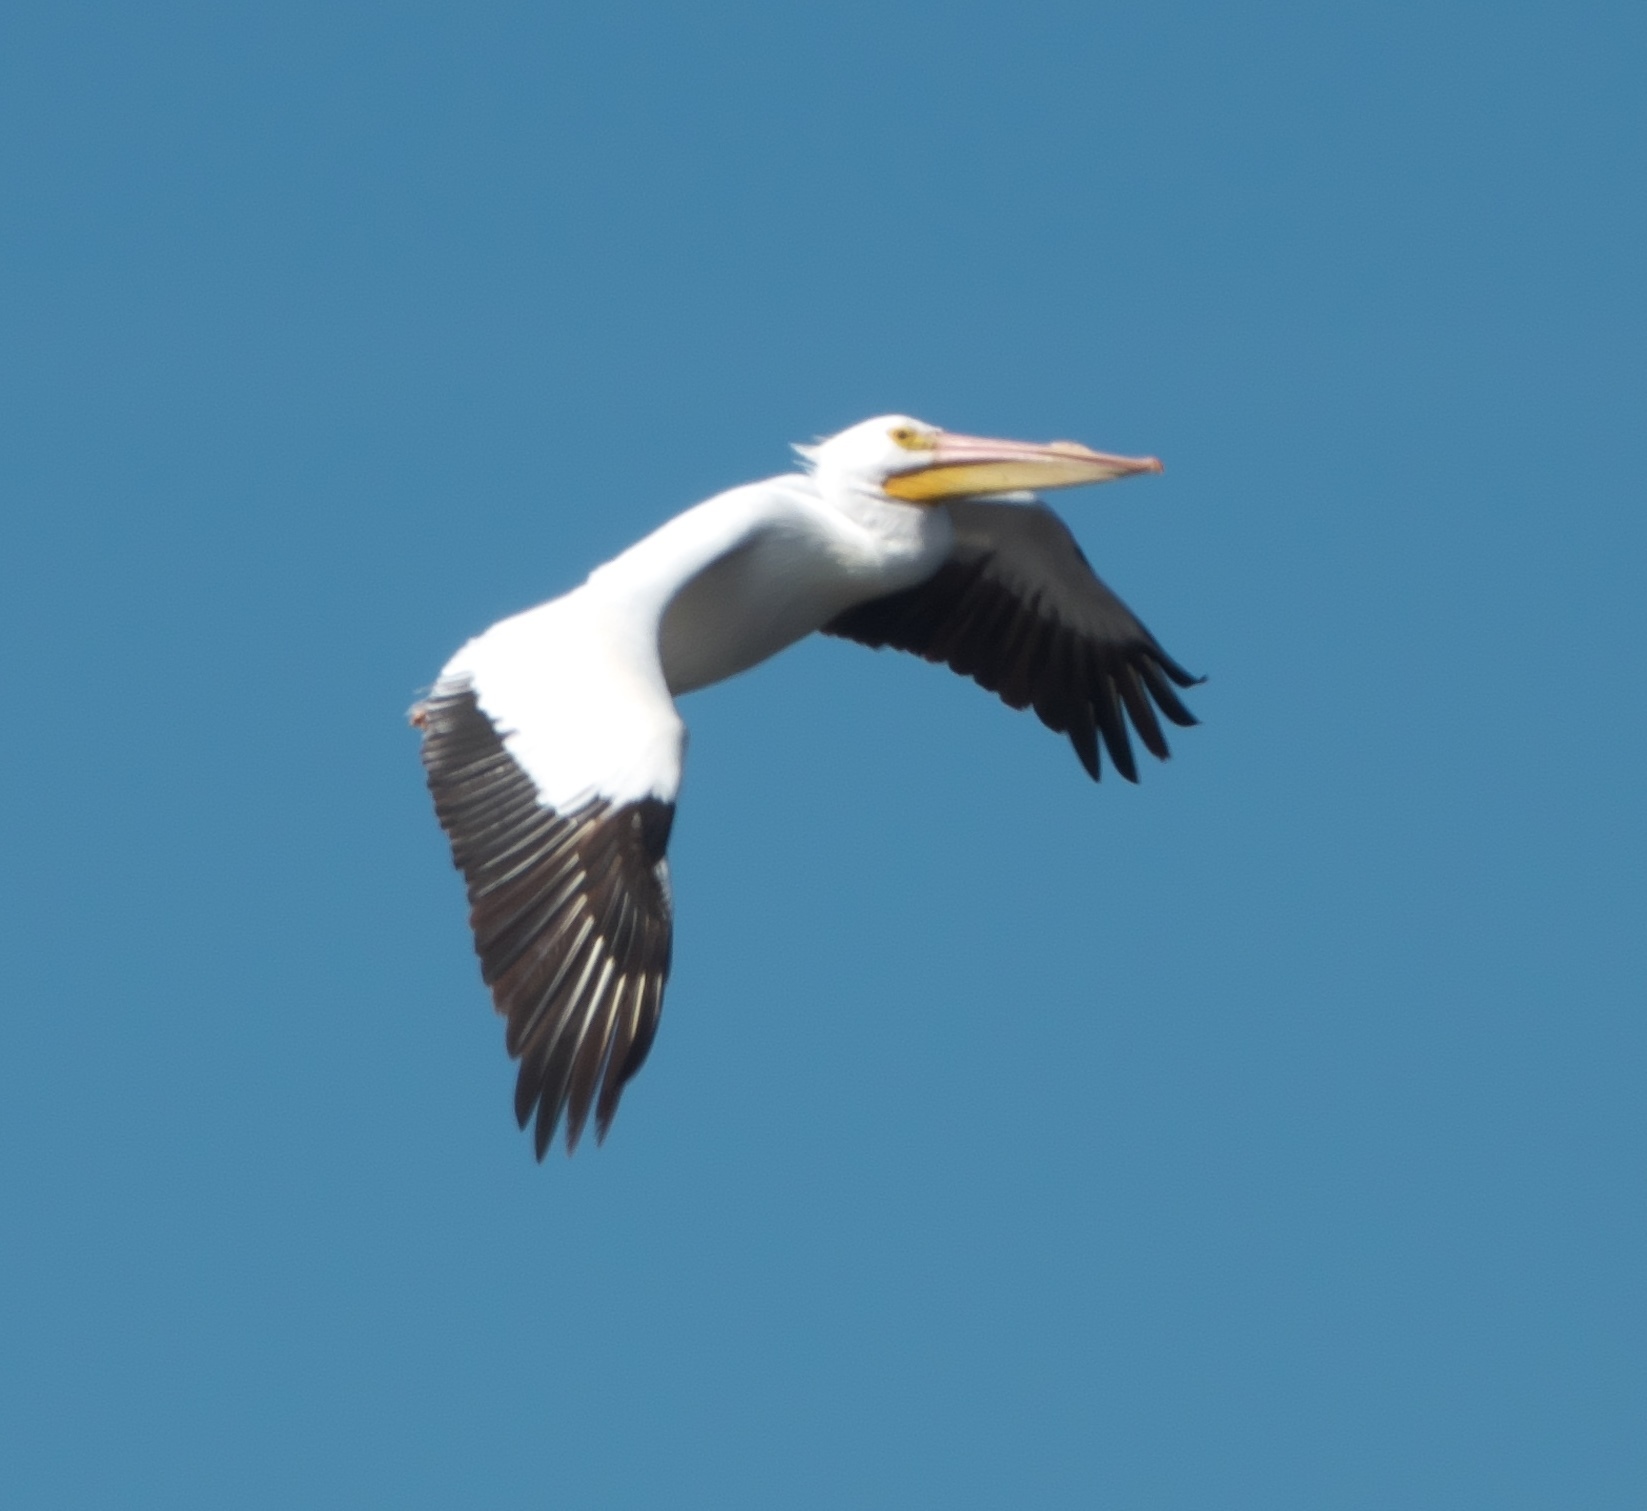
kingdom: Animalia
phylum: Chordata
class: Aves
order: Pelecaniformes
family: Pelecanidae
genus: Pelecanus
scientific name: Pelecanus erythrorhynchos
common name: American white pelican
